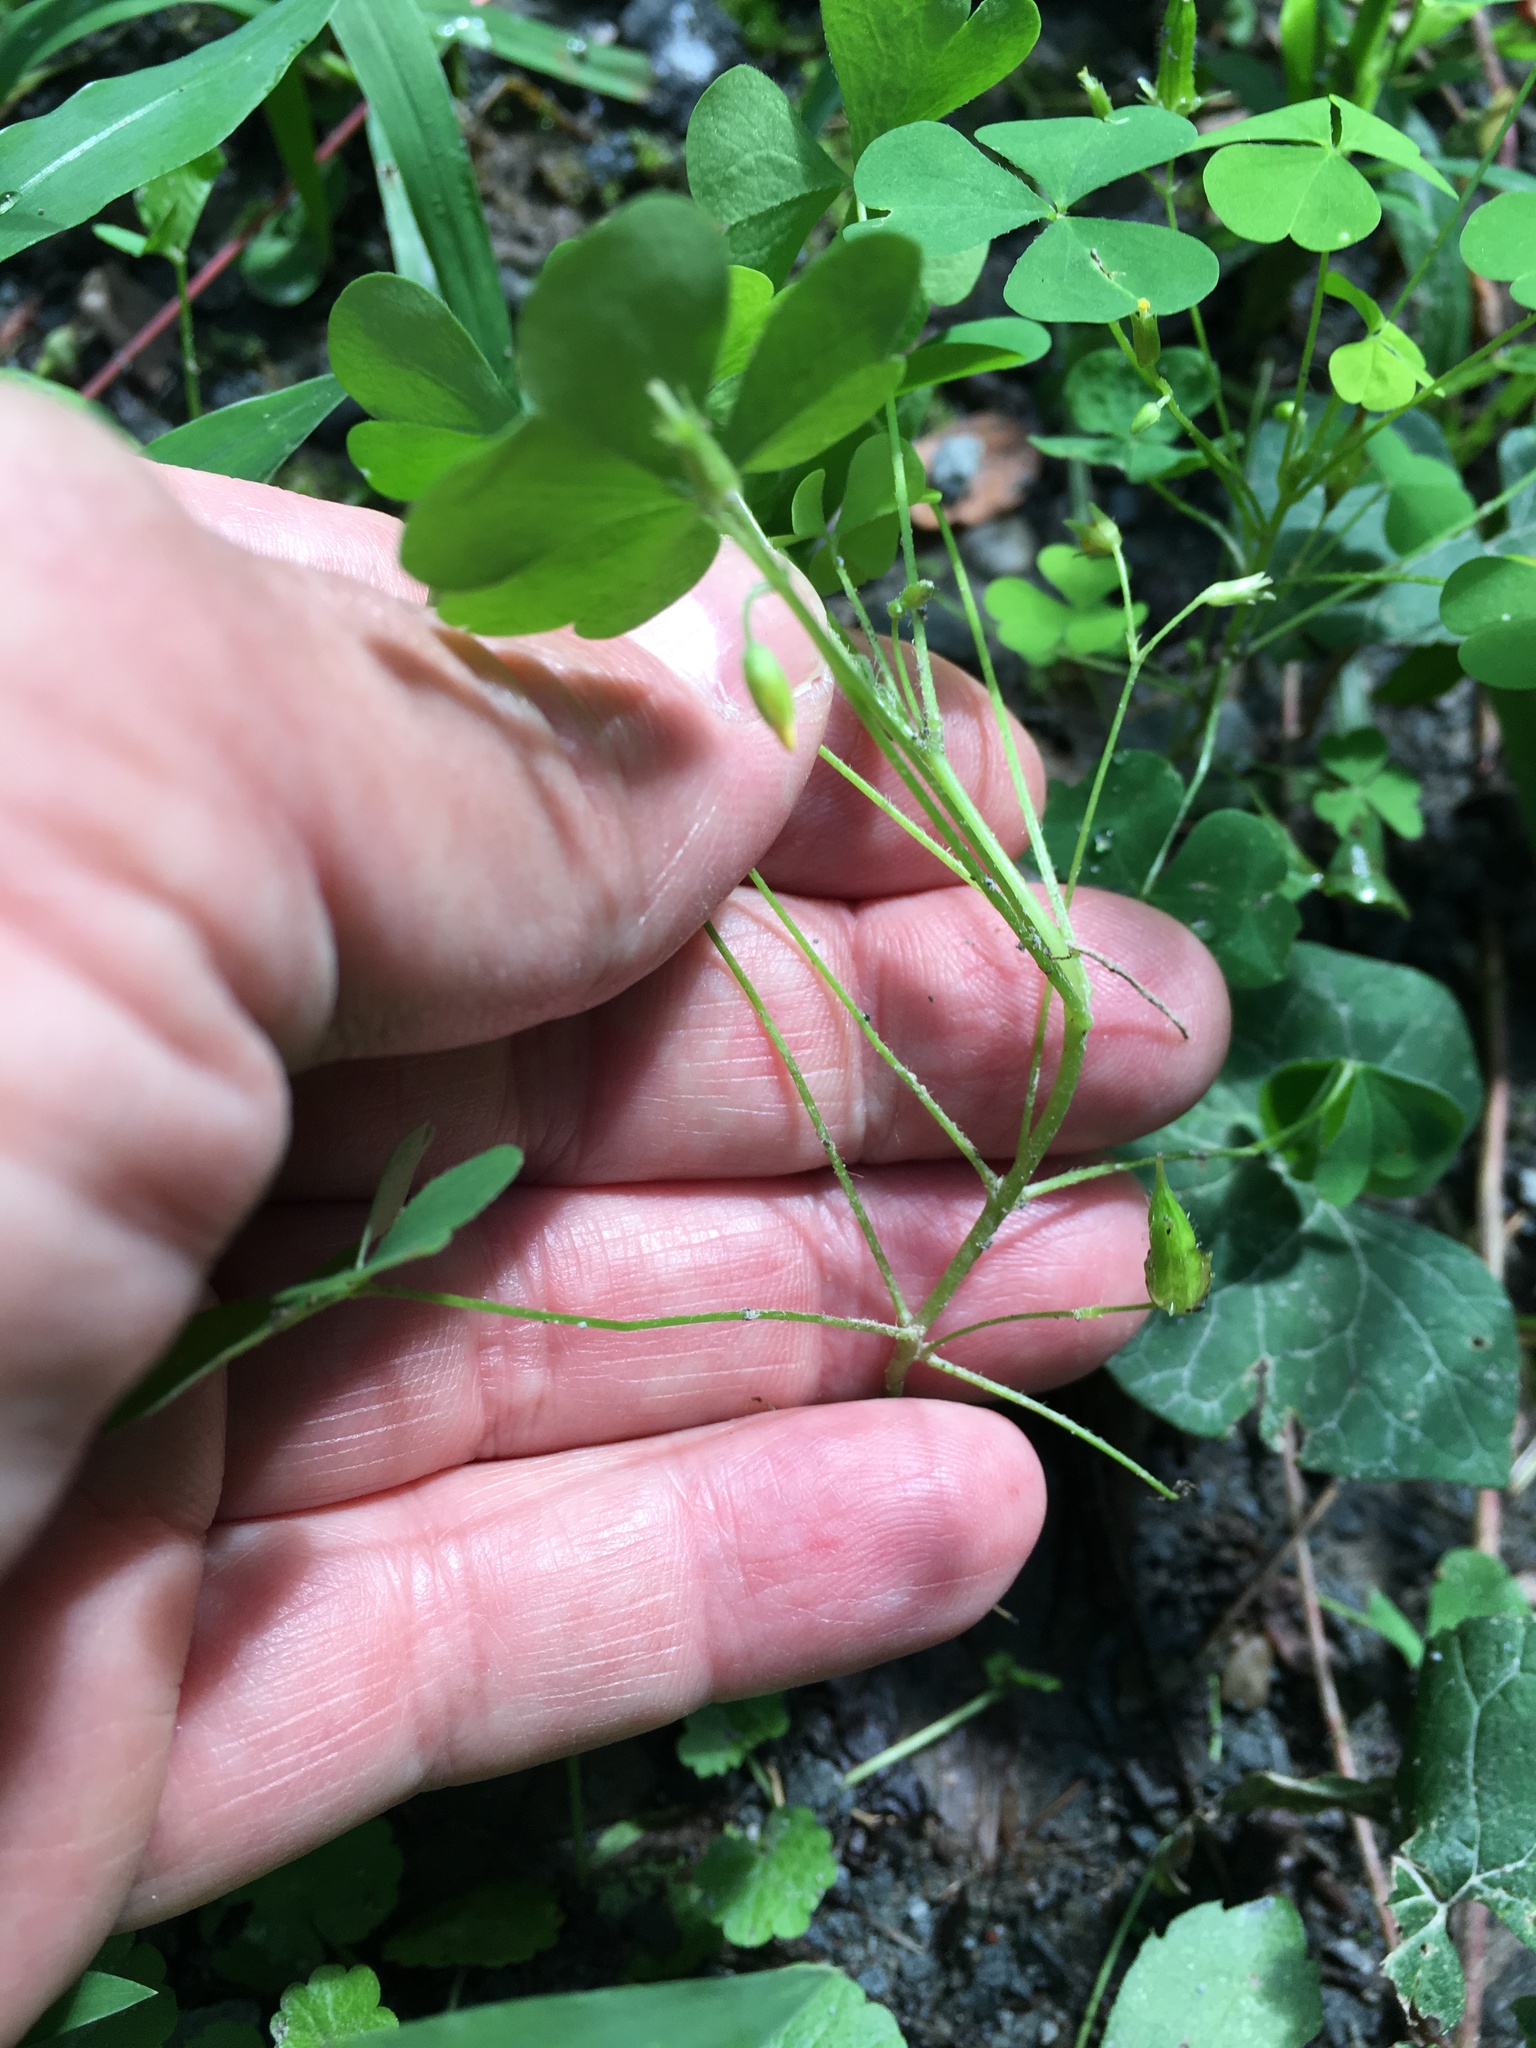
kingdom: Plantae
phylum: Tracheophyta
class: Magnoliopsida
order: Oxalidales
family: Oxalidaceae
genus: Oxalis
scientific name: Oxalis stricta
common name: Upright yellow-sorrel
